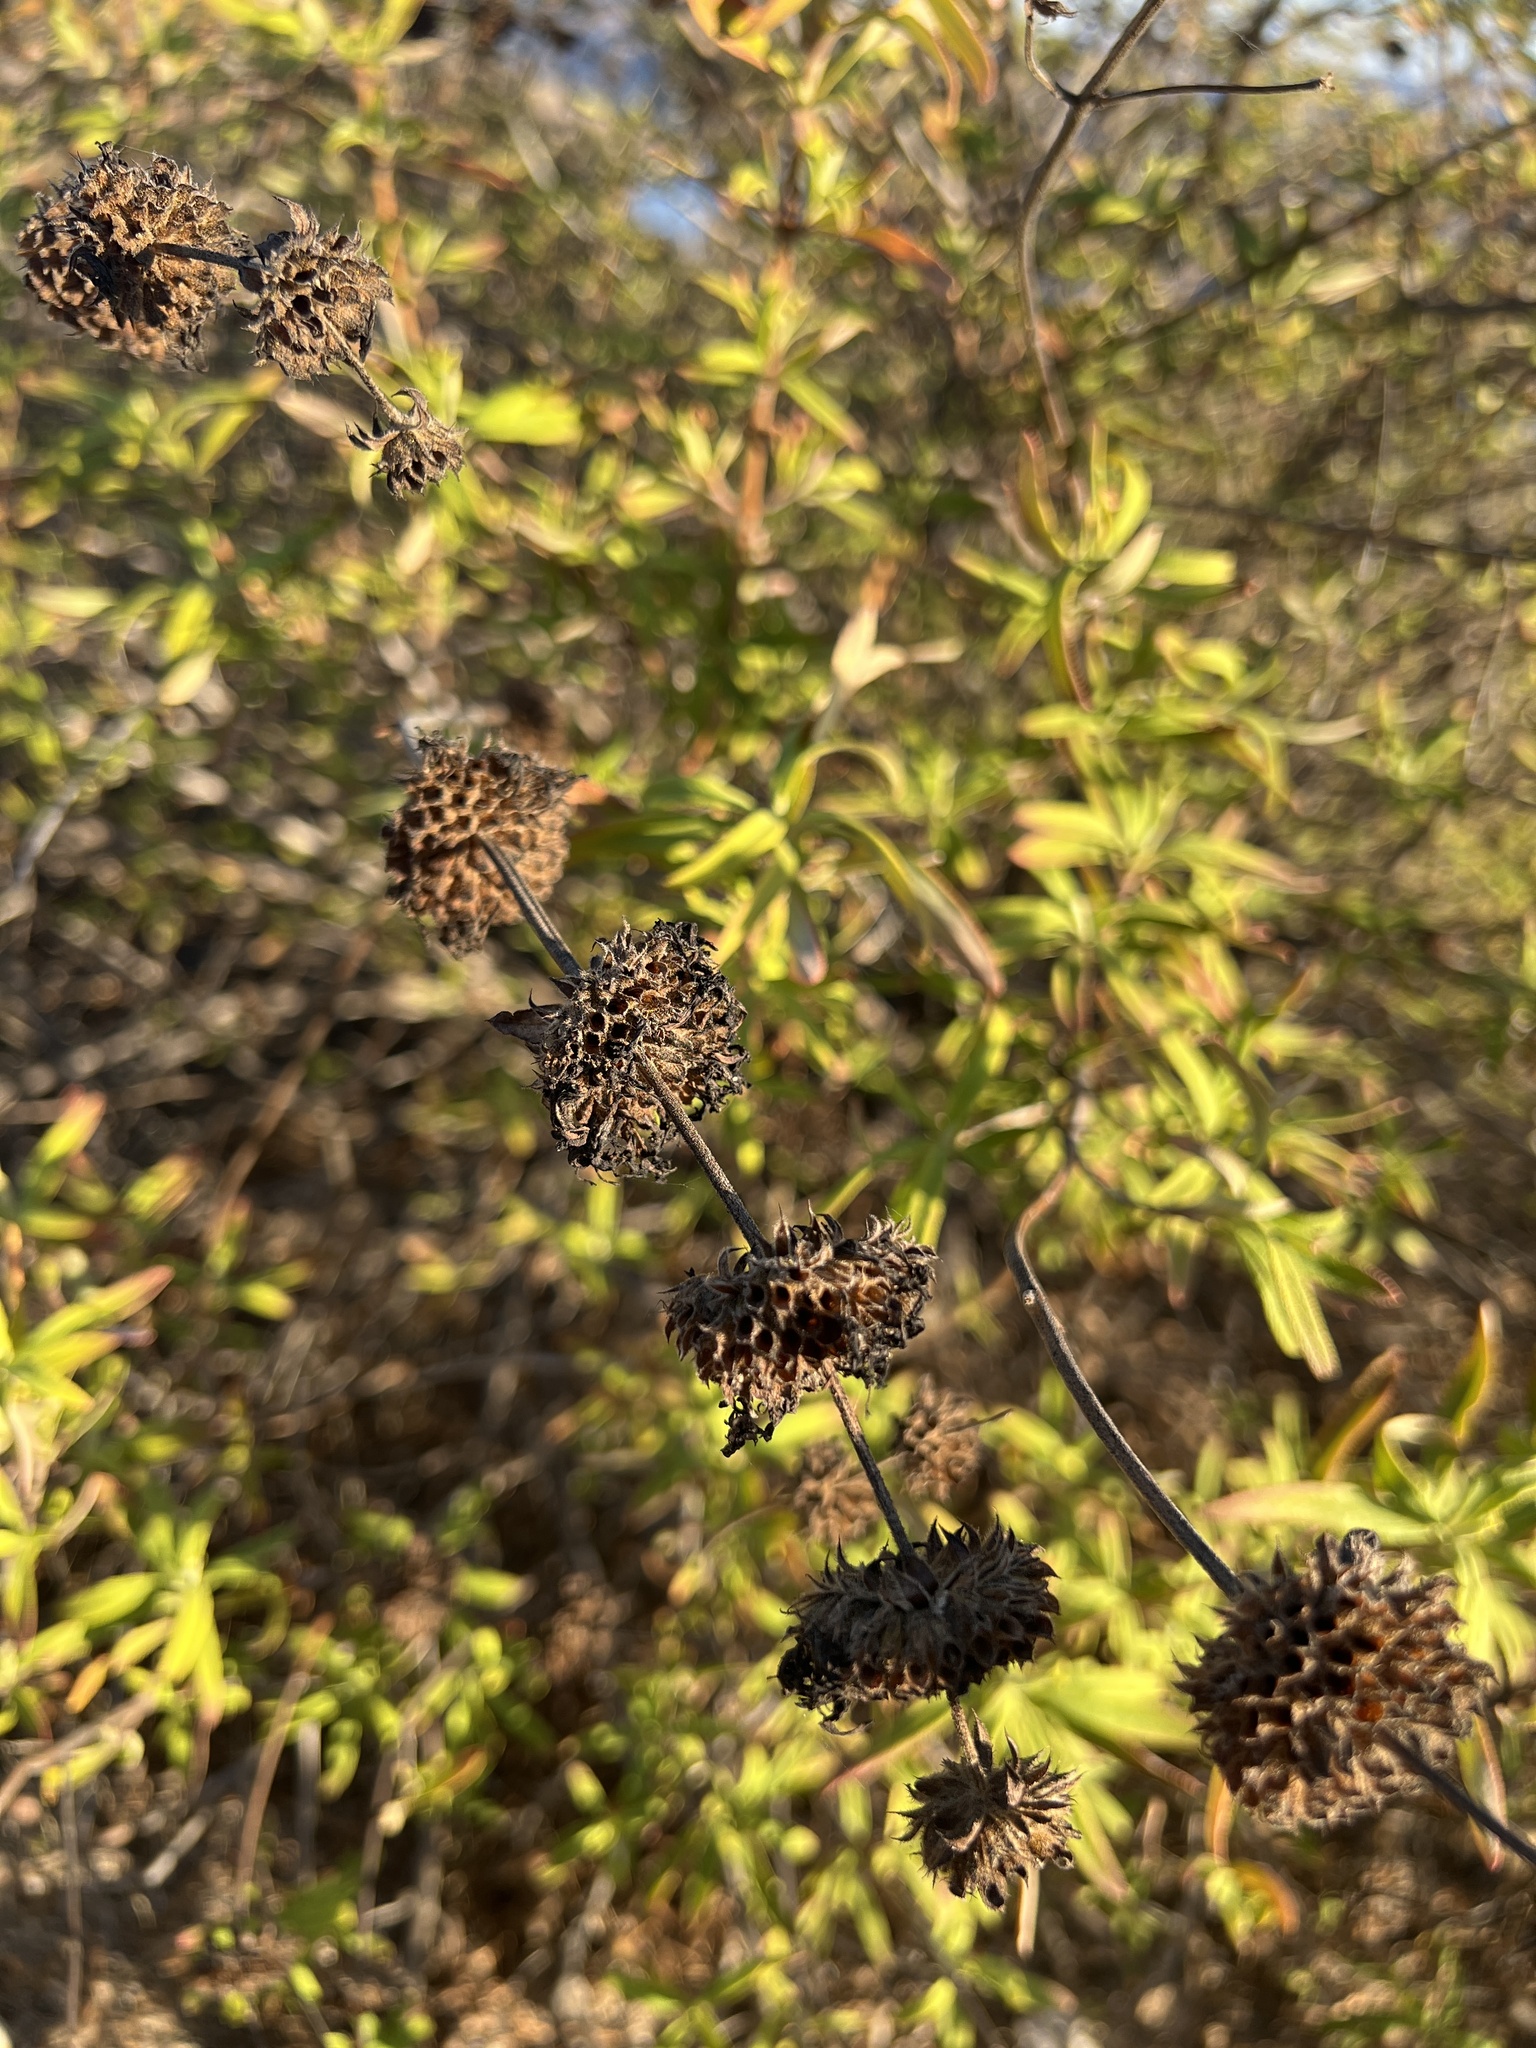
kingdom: Plantae
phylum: Tracheophyta
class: Magnoliopsida
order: Lamiales
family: Lamiaceae
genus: Salvia
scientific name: Salvia mellifera
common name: Black sage
